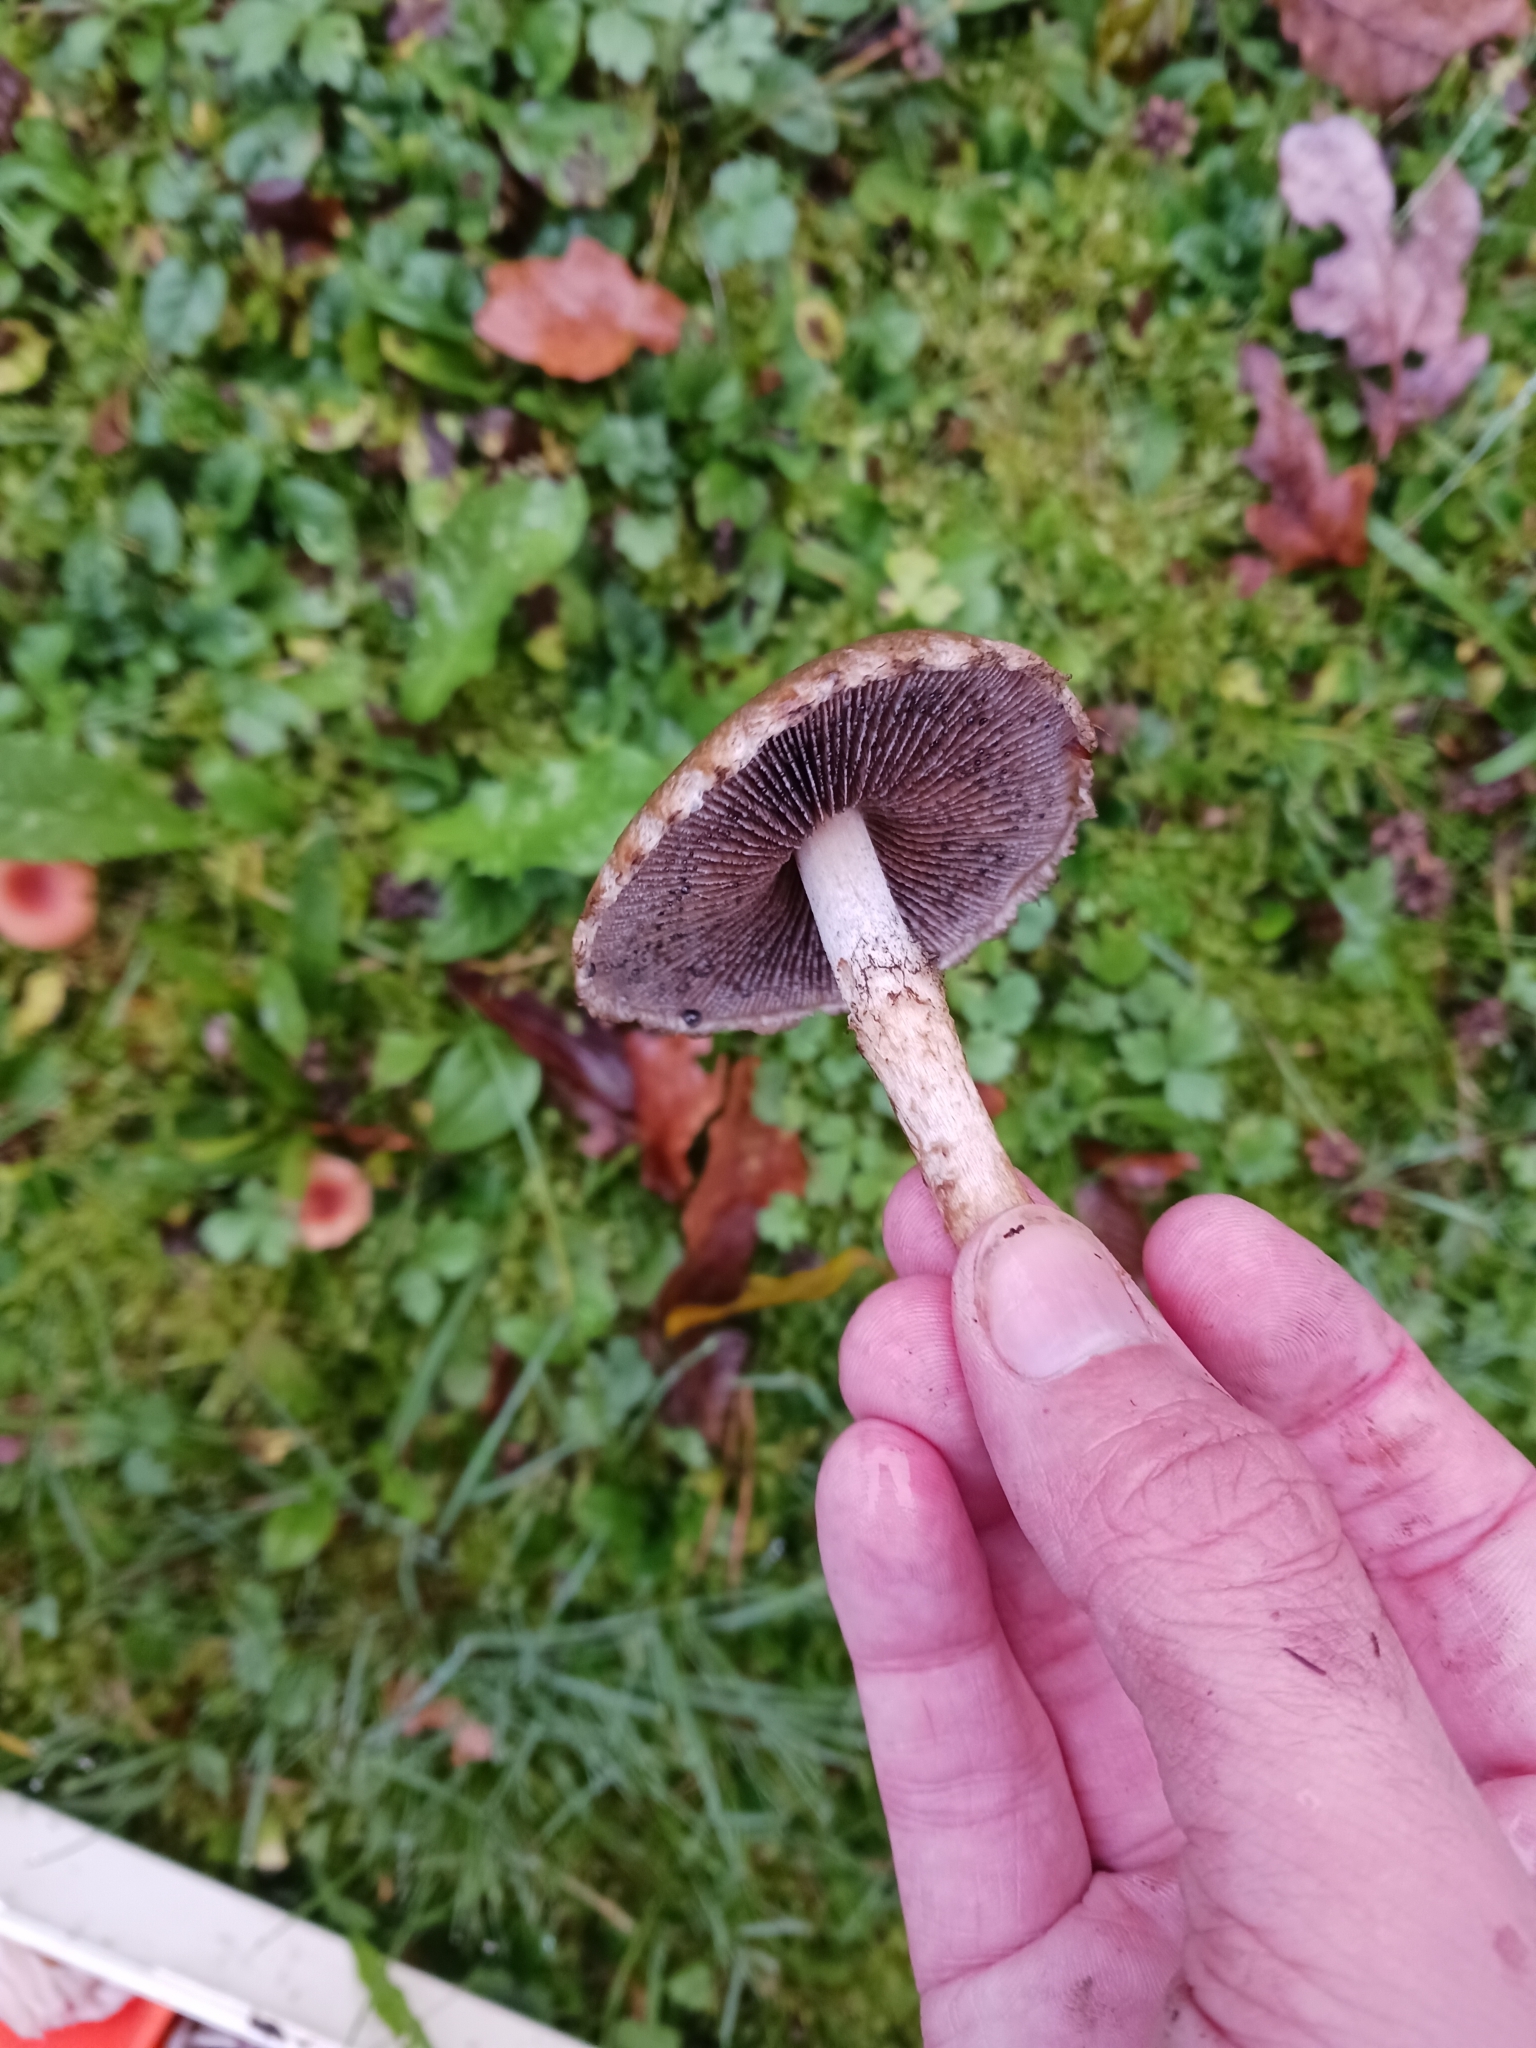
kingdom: Fungi
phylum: Basidiomycota
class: Agaricomycetes
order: Agaricales
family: Psathyrellaceae
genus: Lacrymaria
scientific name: Lacrymaria lacrymabunda
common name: Weeping widow
